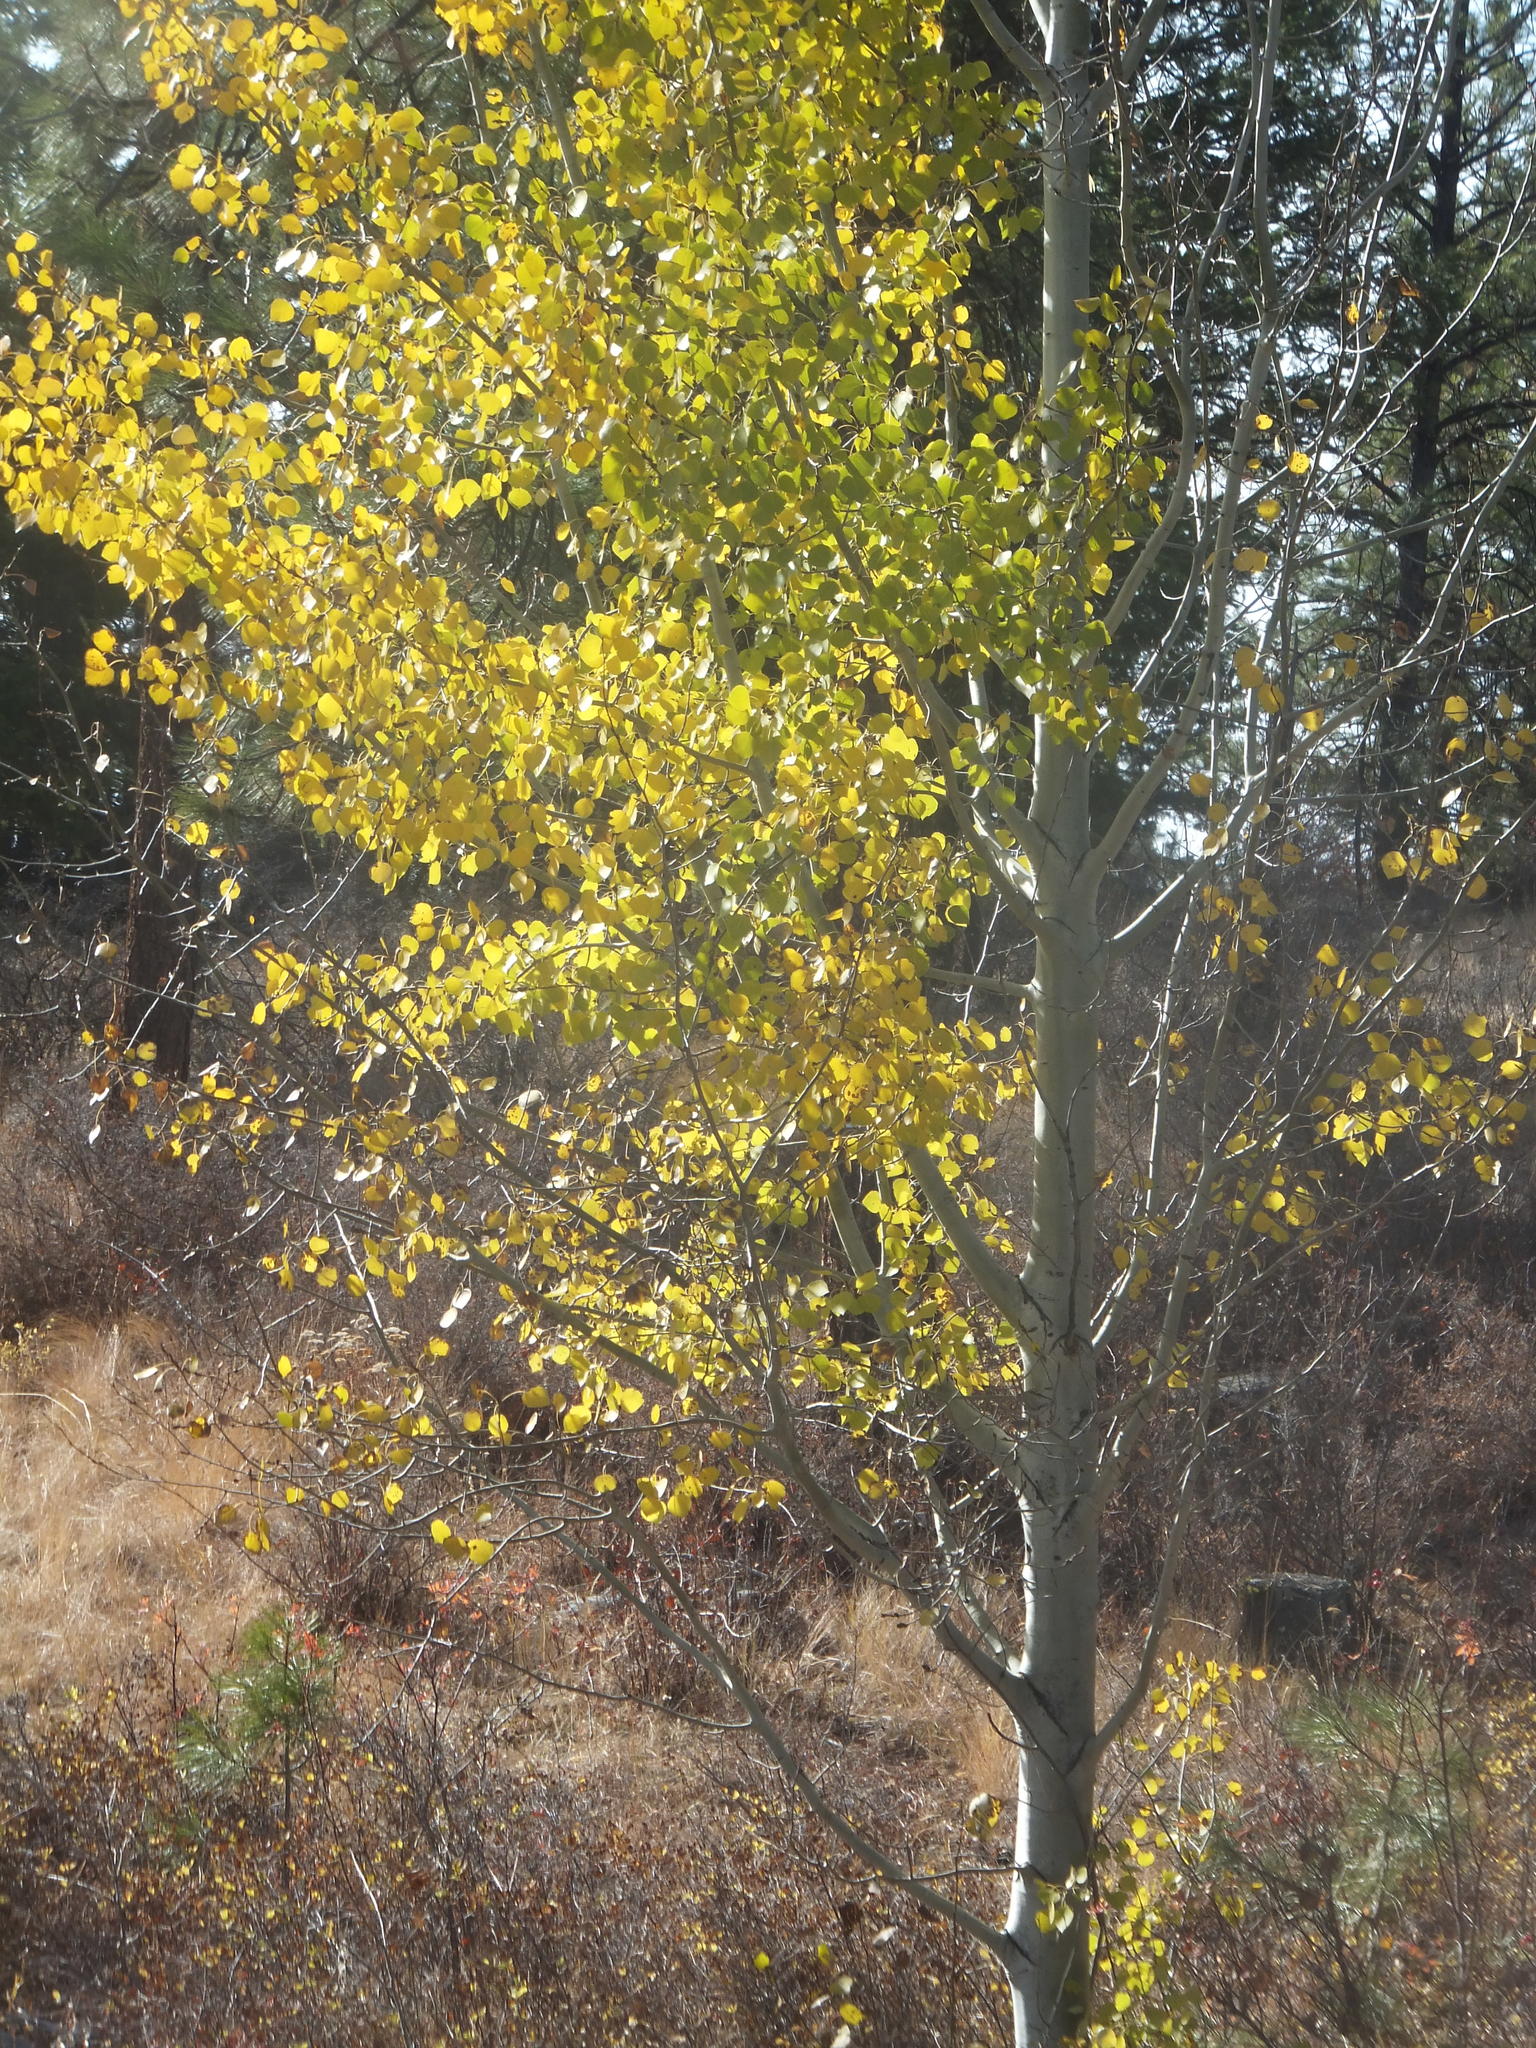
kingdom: Plantae
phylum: Tracheophyta
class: Magnoliopsida
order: Malpighiales
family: Salicaceae
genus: Populus
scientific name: Populus tremuloides
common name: Quaking aspen
